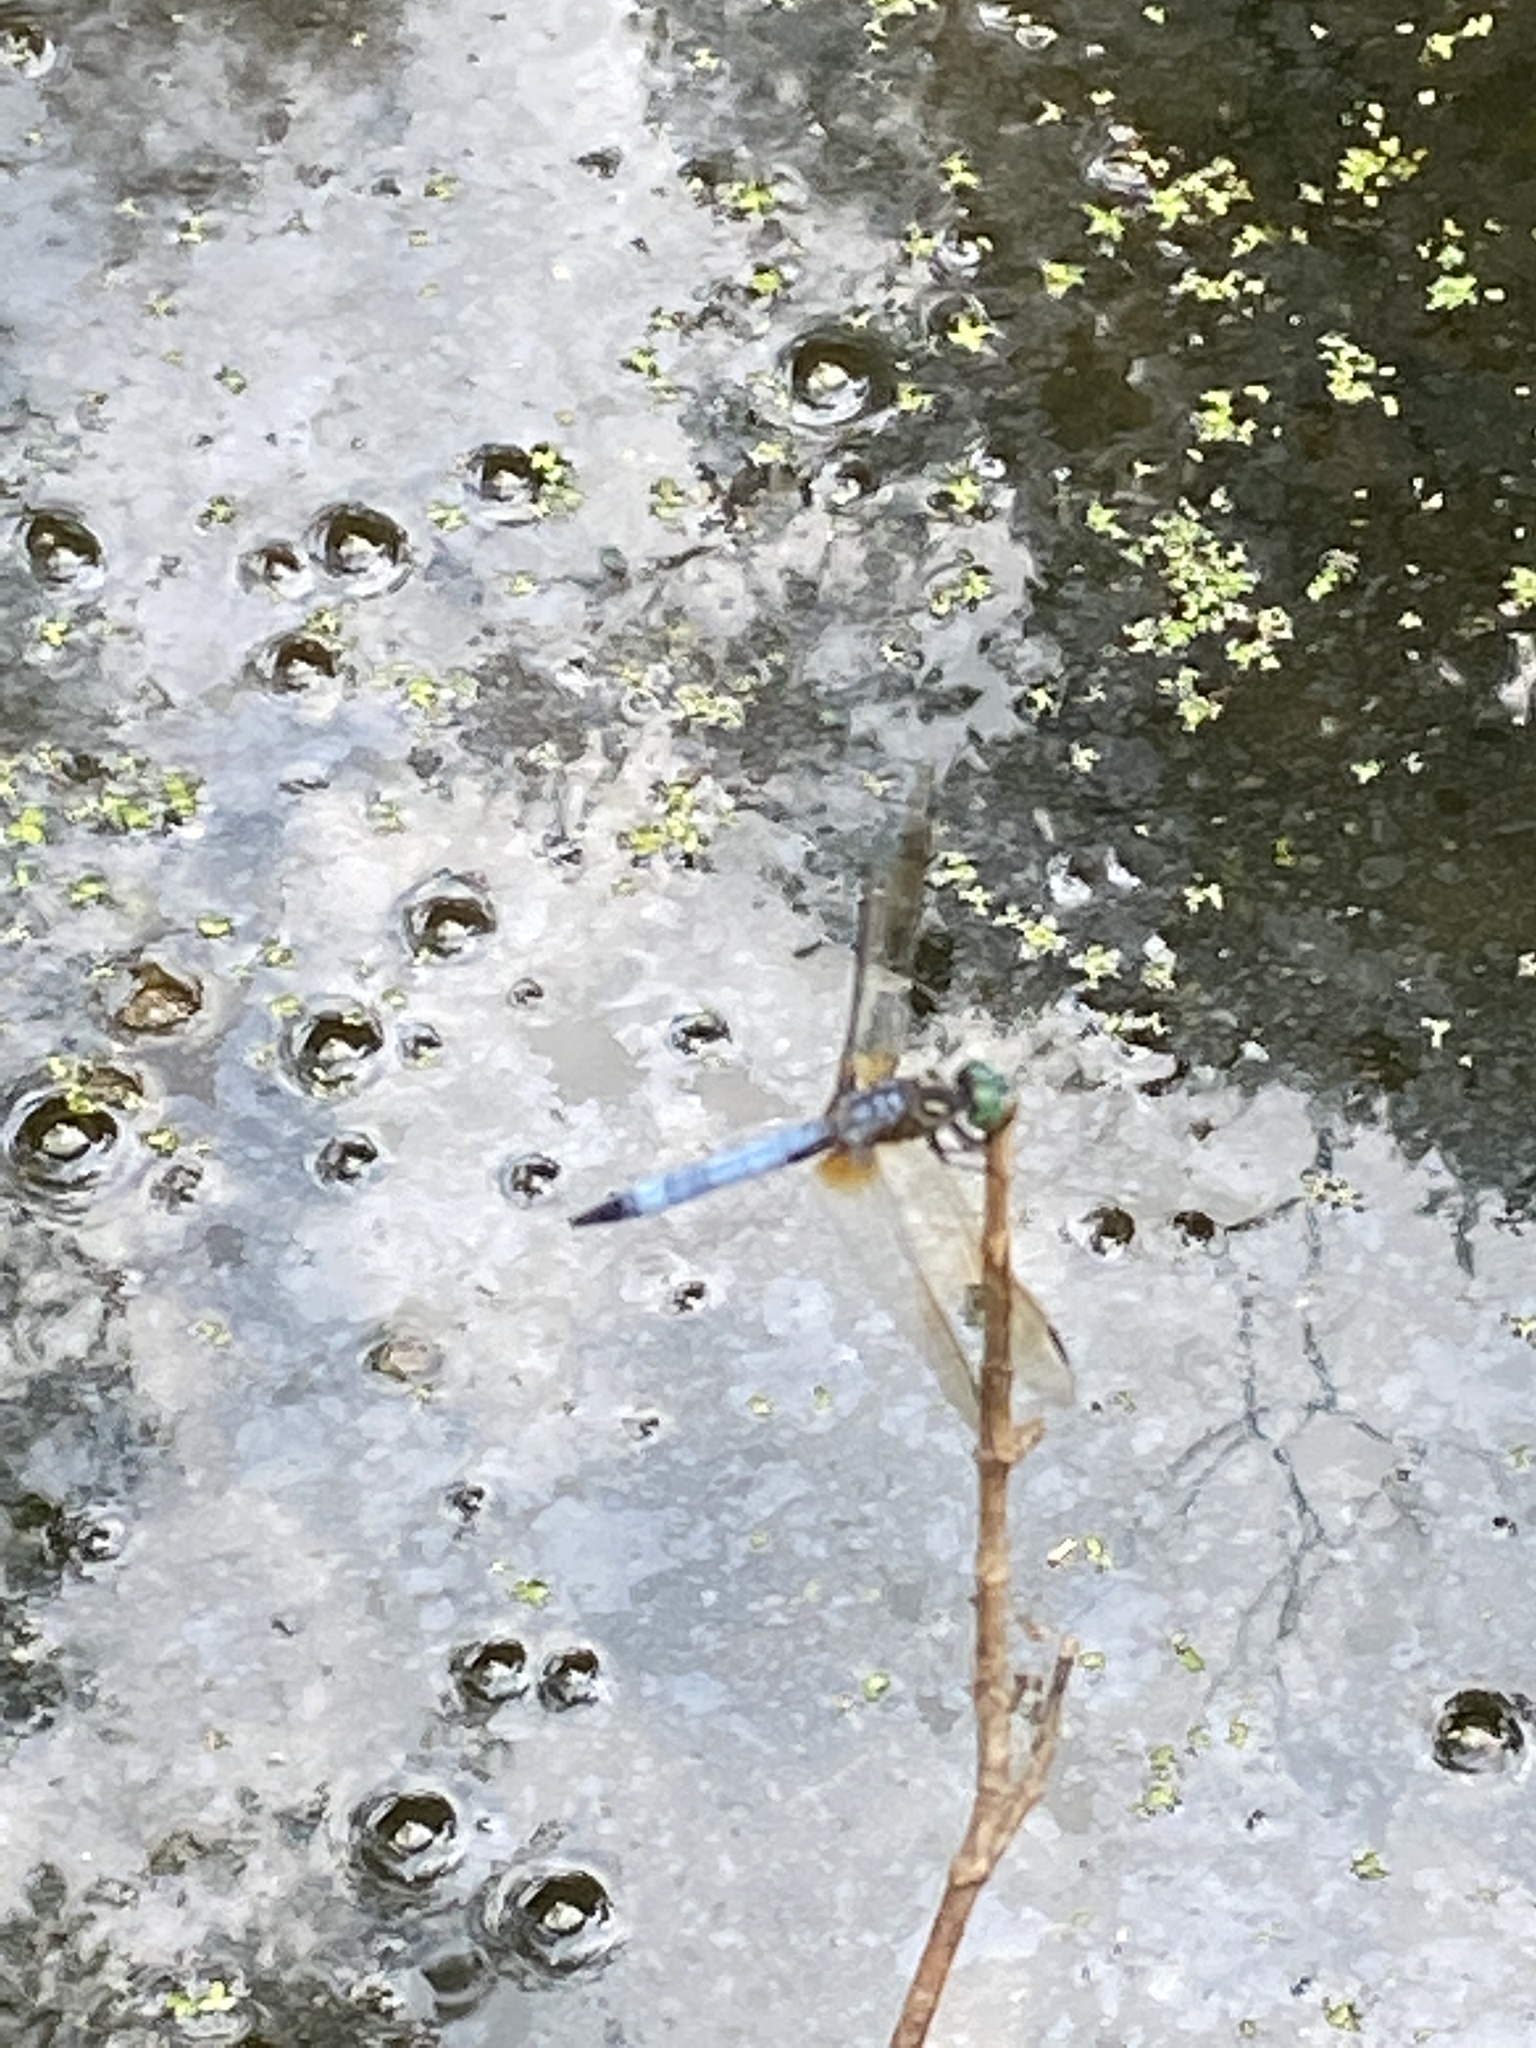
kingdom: Animalia
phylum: Arthropoda
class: Insecta
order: Odonata
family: Libellulidae
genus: Pachydiplax
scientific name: Pachydiplax longipennis
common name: Blue dasher
